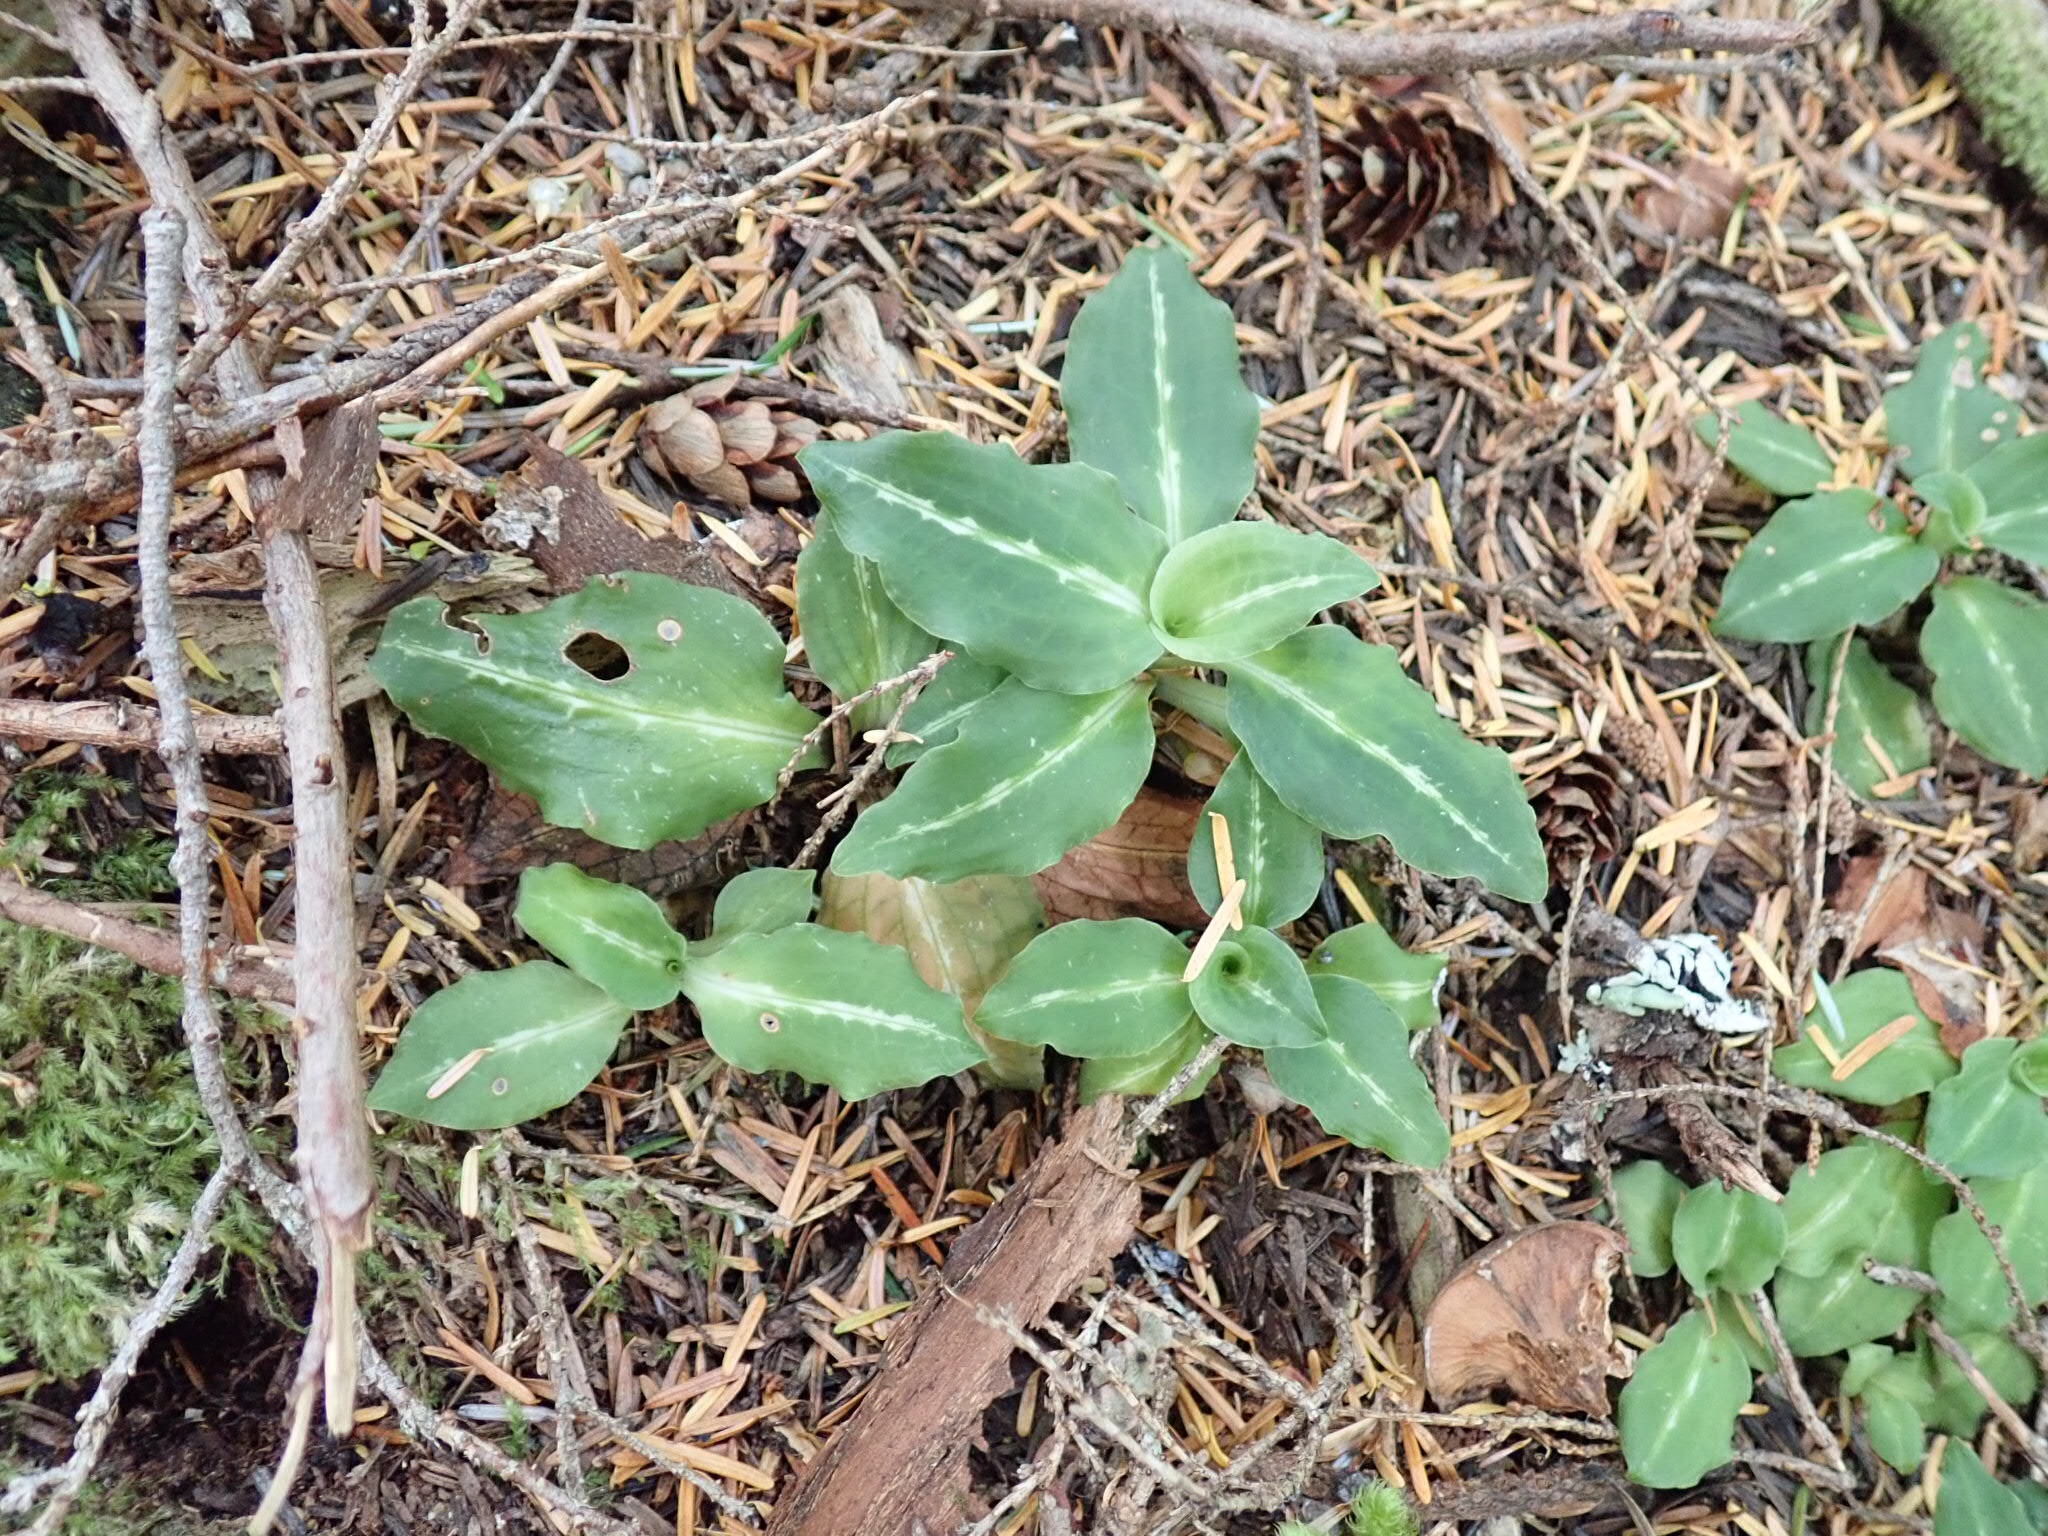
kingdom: Plantae
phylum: Tracheophyta
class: Liliopsida
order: Asparagales
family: Orchidaceae
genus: Goodyera
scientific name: Goodyera oblongifolia
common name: Giant rattlesnake-plantain
